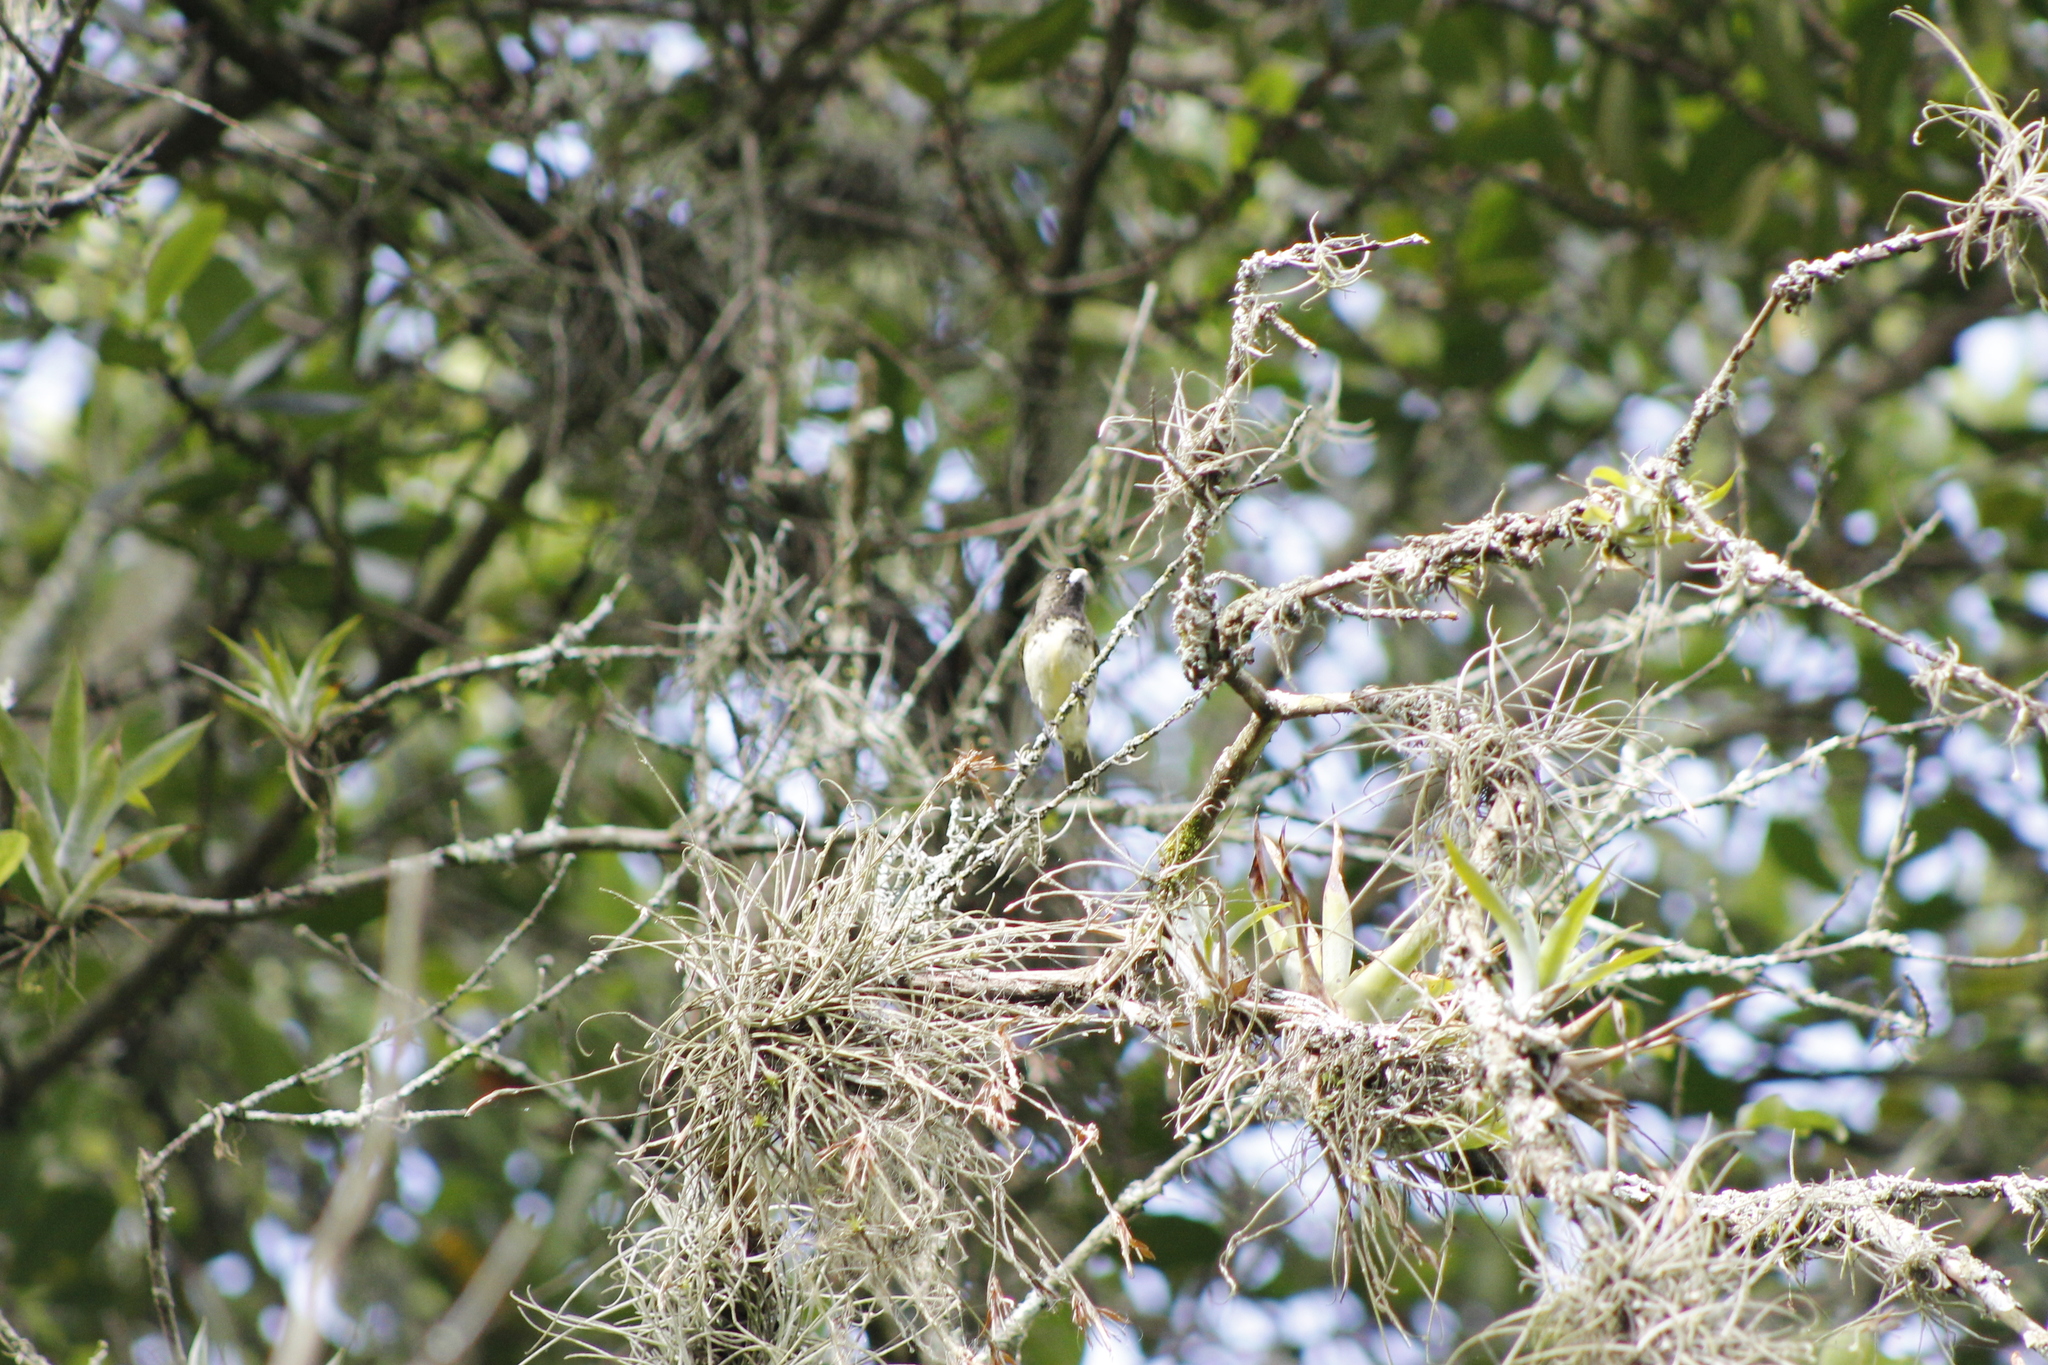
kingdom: Animalia
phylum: Chordata
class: Aves
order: Passeriformes
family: Thraupidae
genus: Sporophila
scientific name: Sporophila nigricollis
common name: Yellow-bellied seedeater
